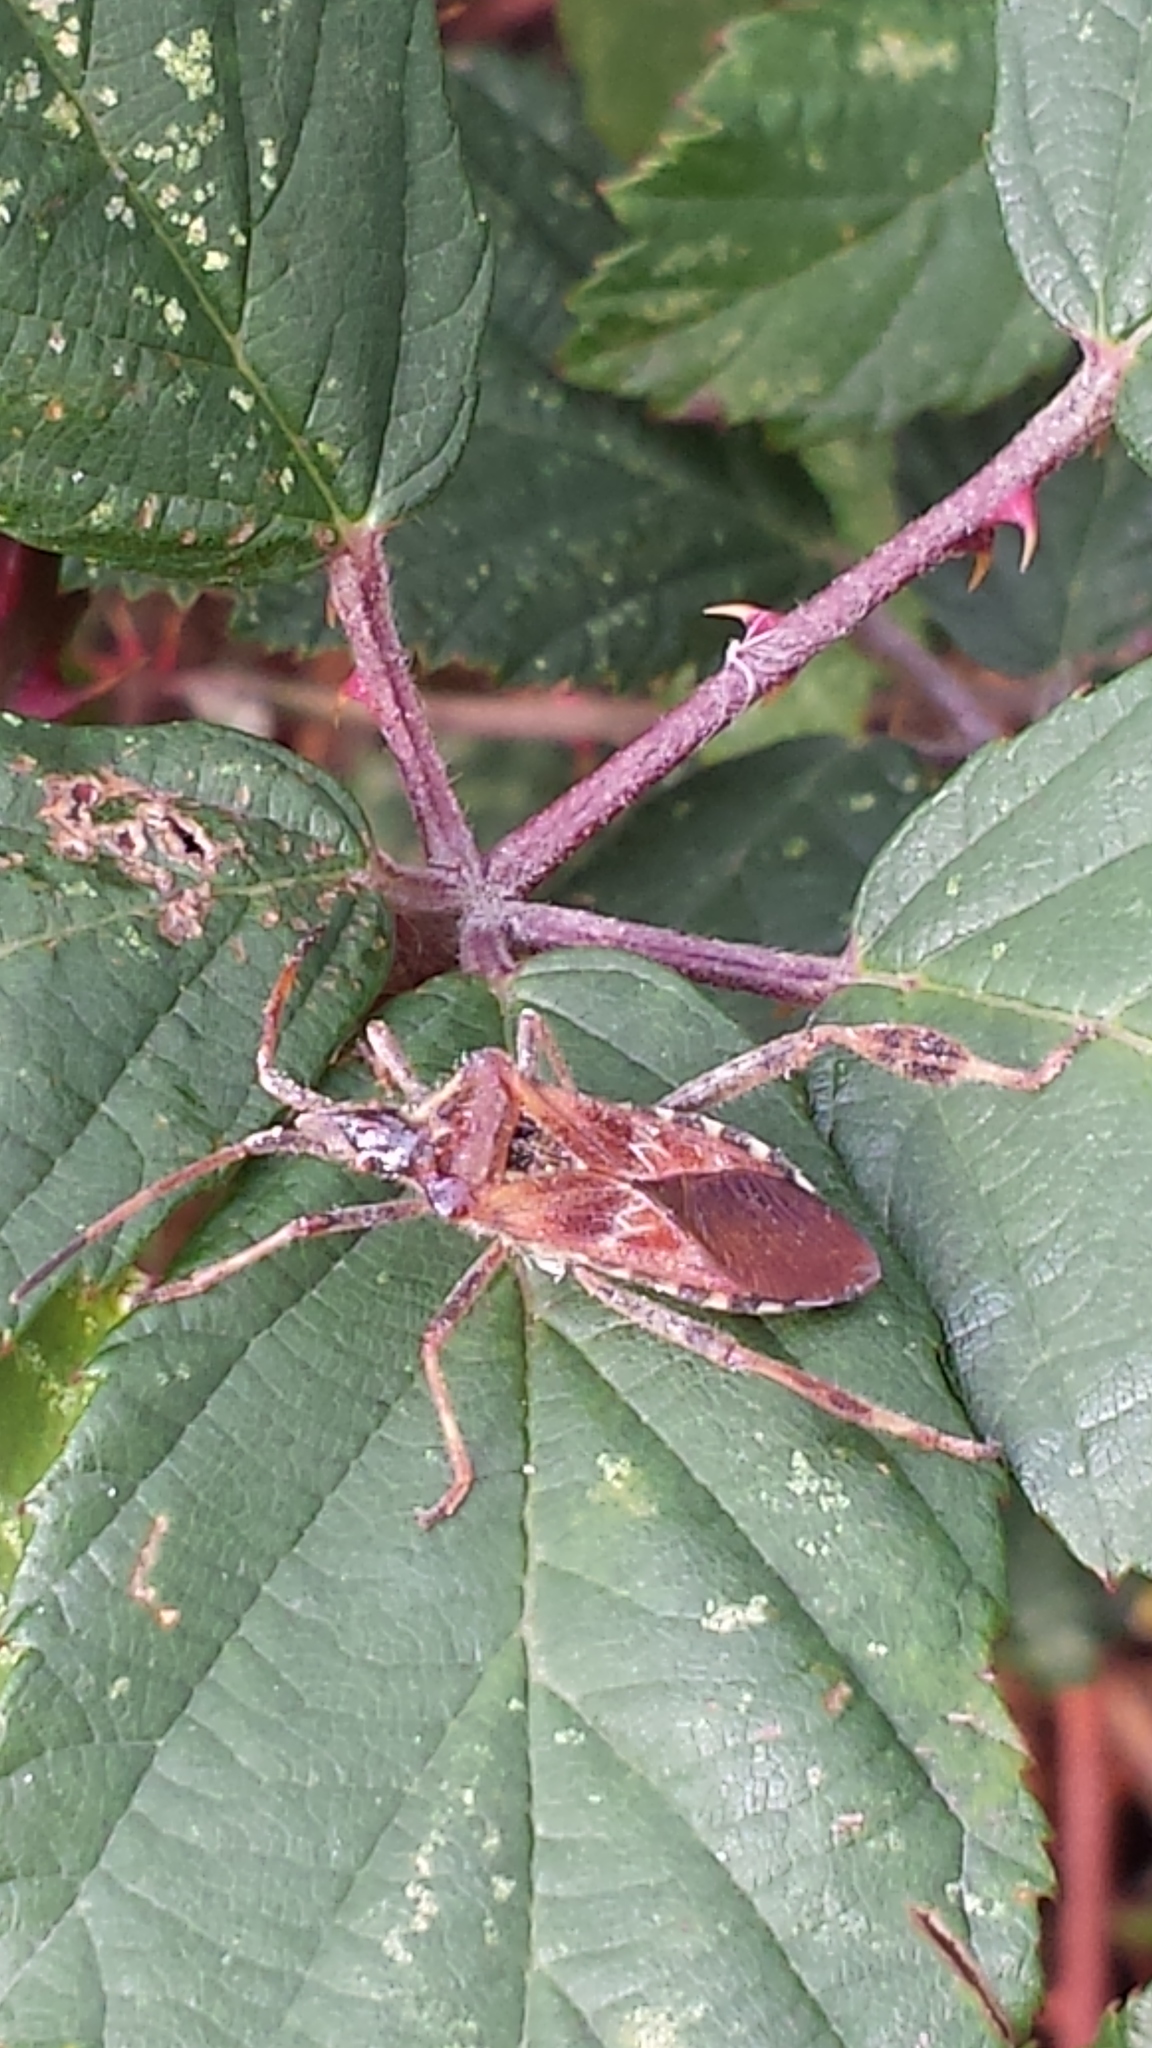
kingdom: Animalia
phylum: Arthropoda
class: Insecta
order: Hemiptera
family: Coreidae
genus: Leptoglossus
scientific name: Leptoglossus occidentalis
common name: Western conifer-seed bug
